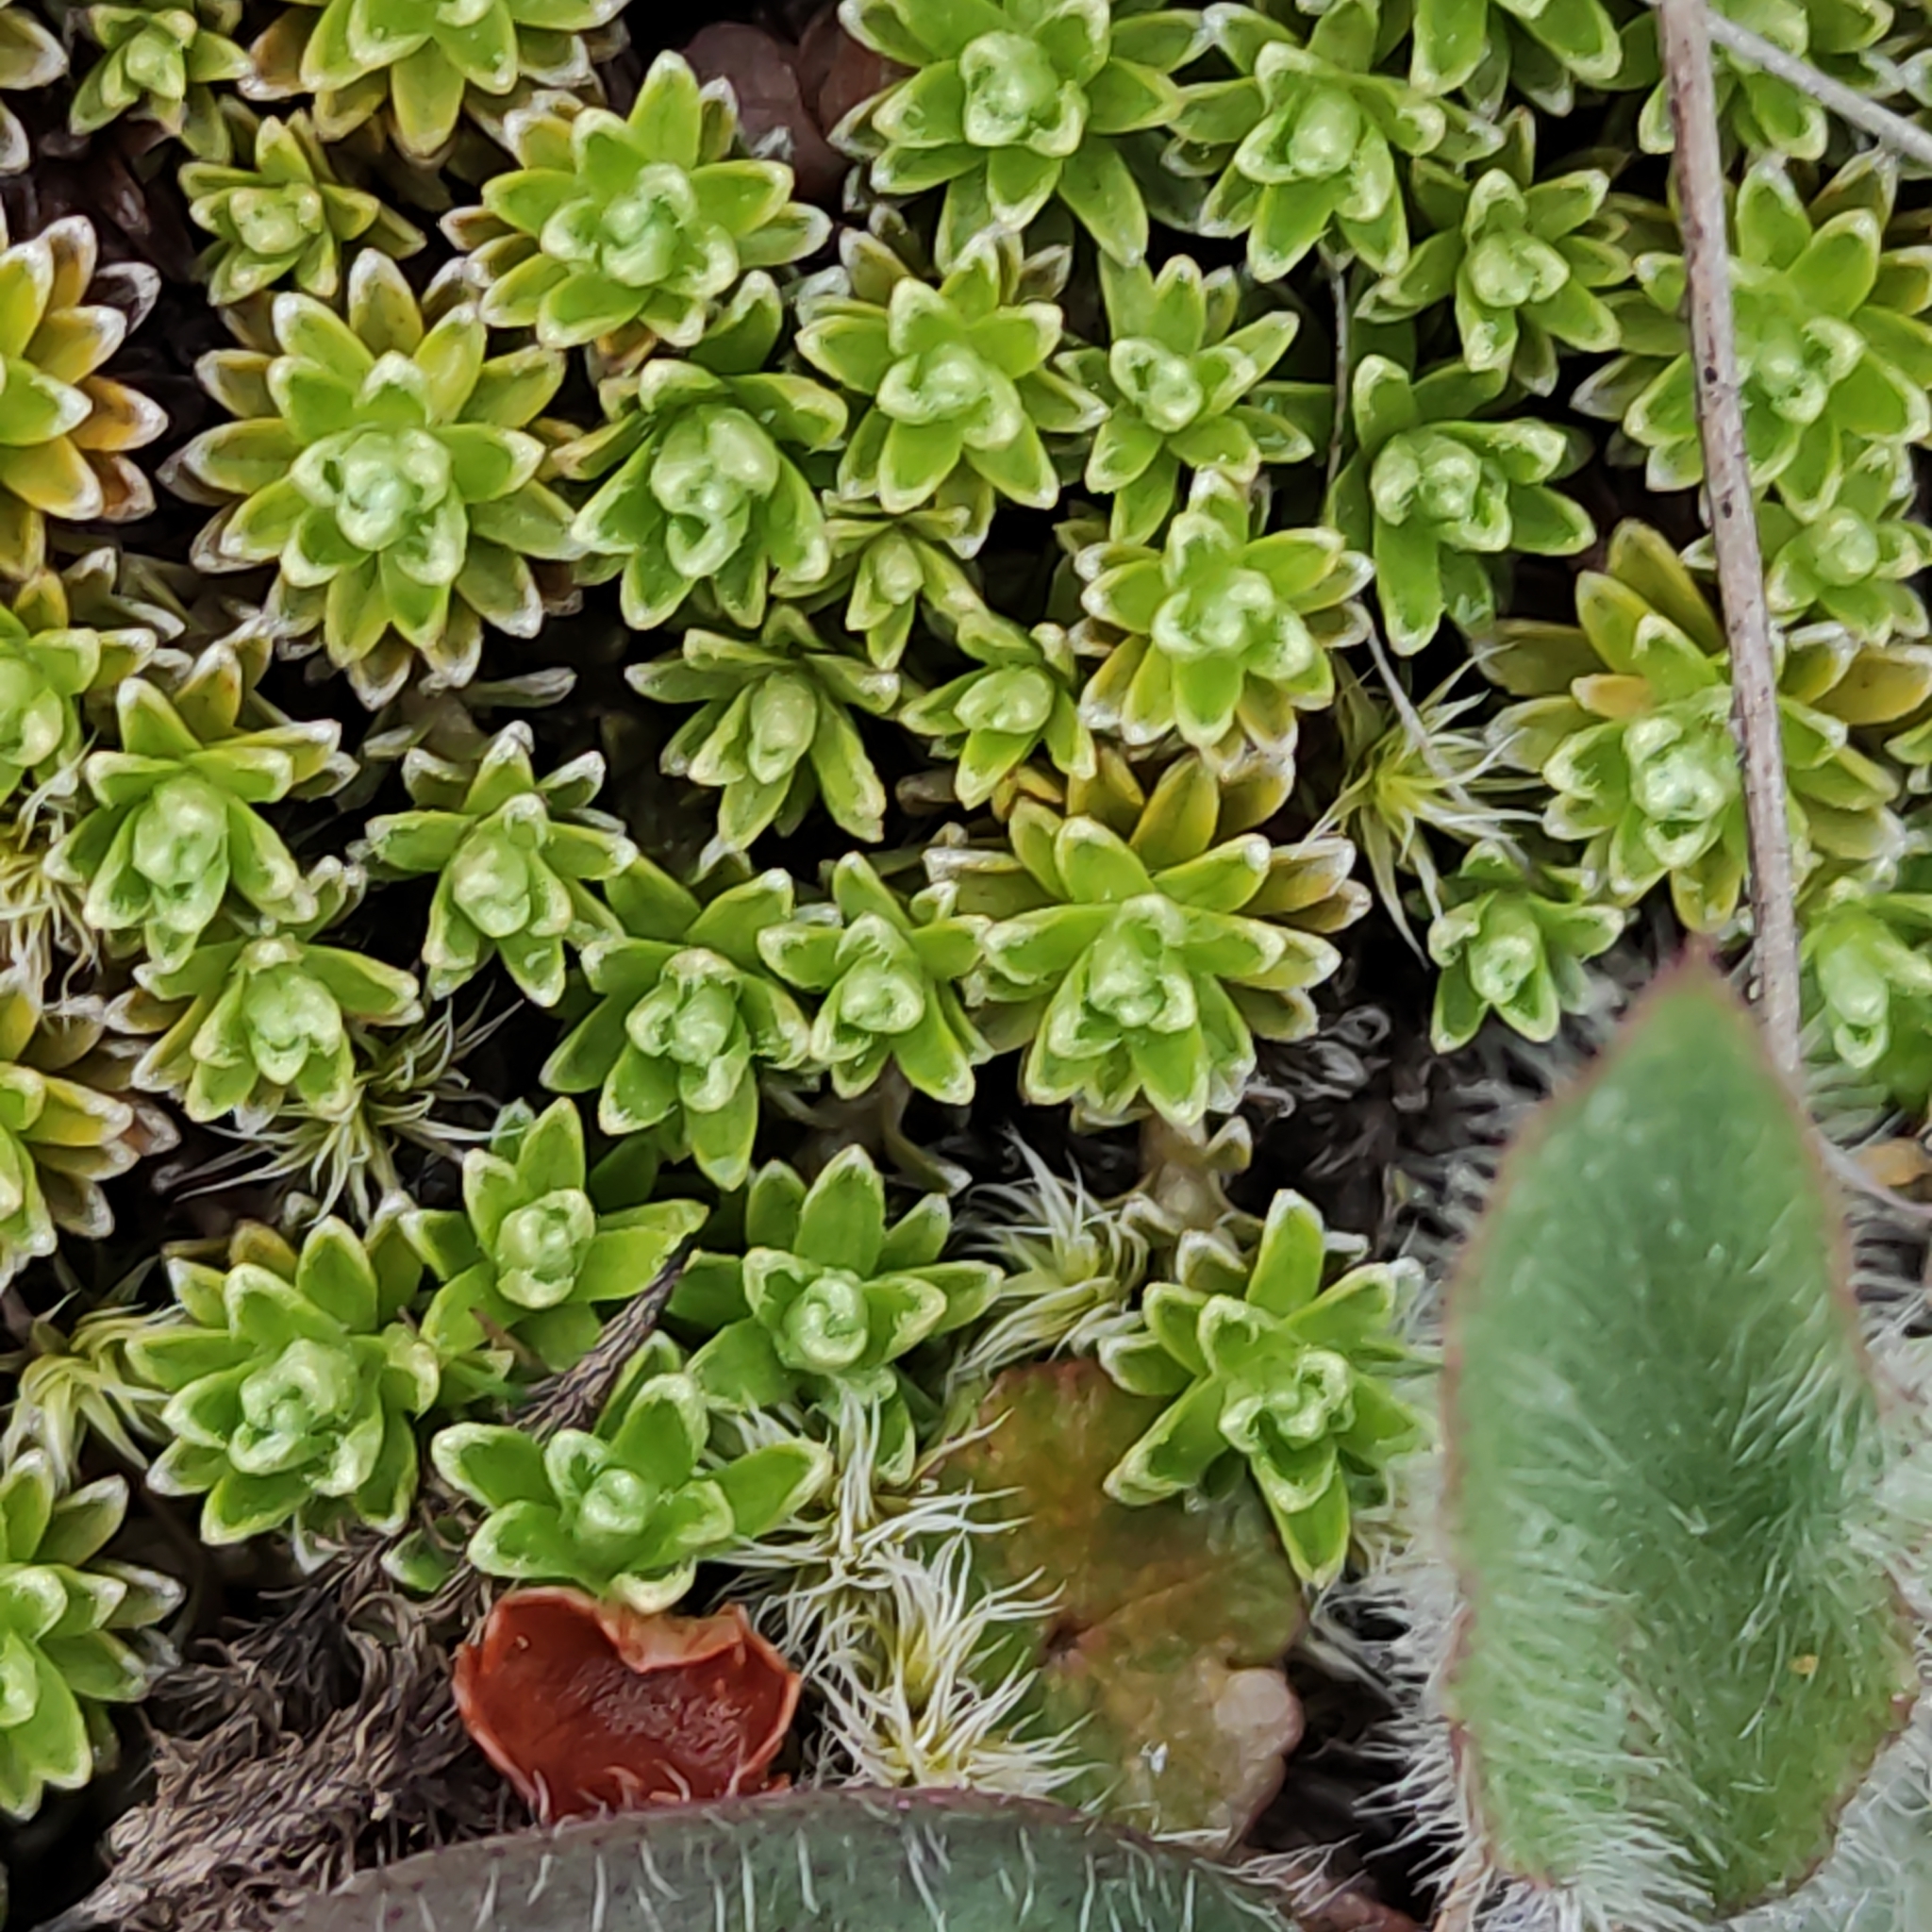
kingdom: Plantae
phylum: Tracheophyta
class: Magnoliopsida
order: Asterales
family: Asteraceae
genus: Raoulia
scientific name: Raoulia subsericea
